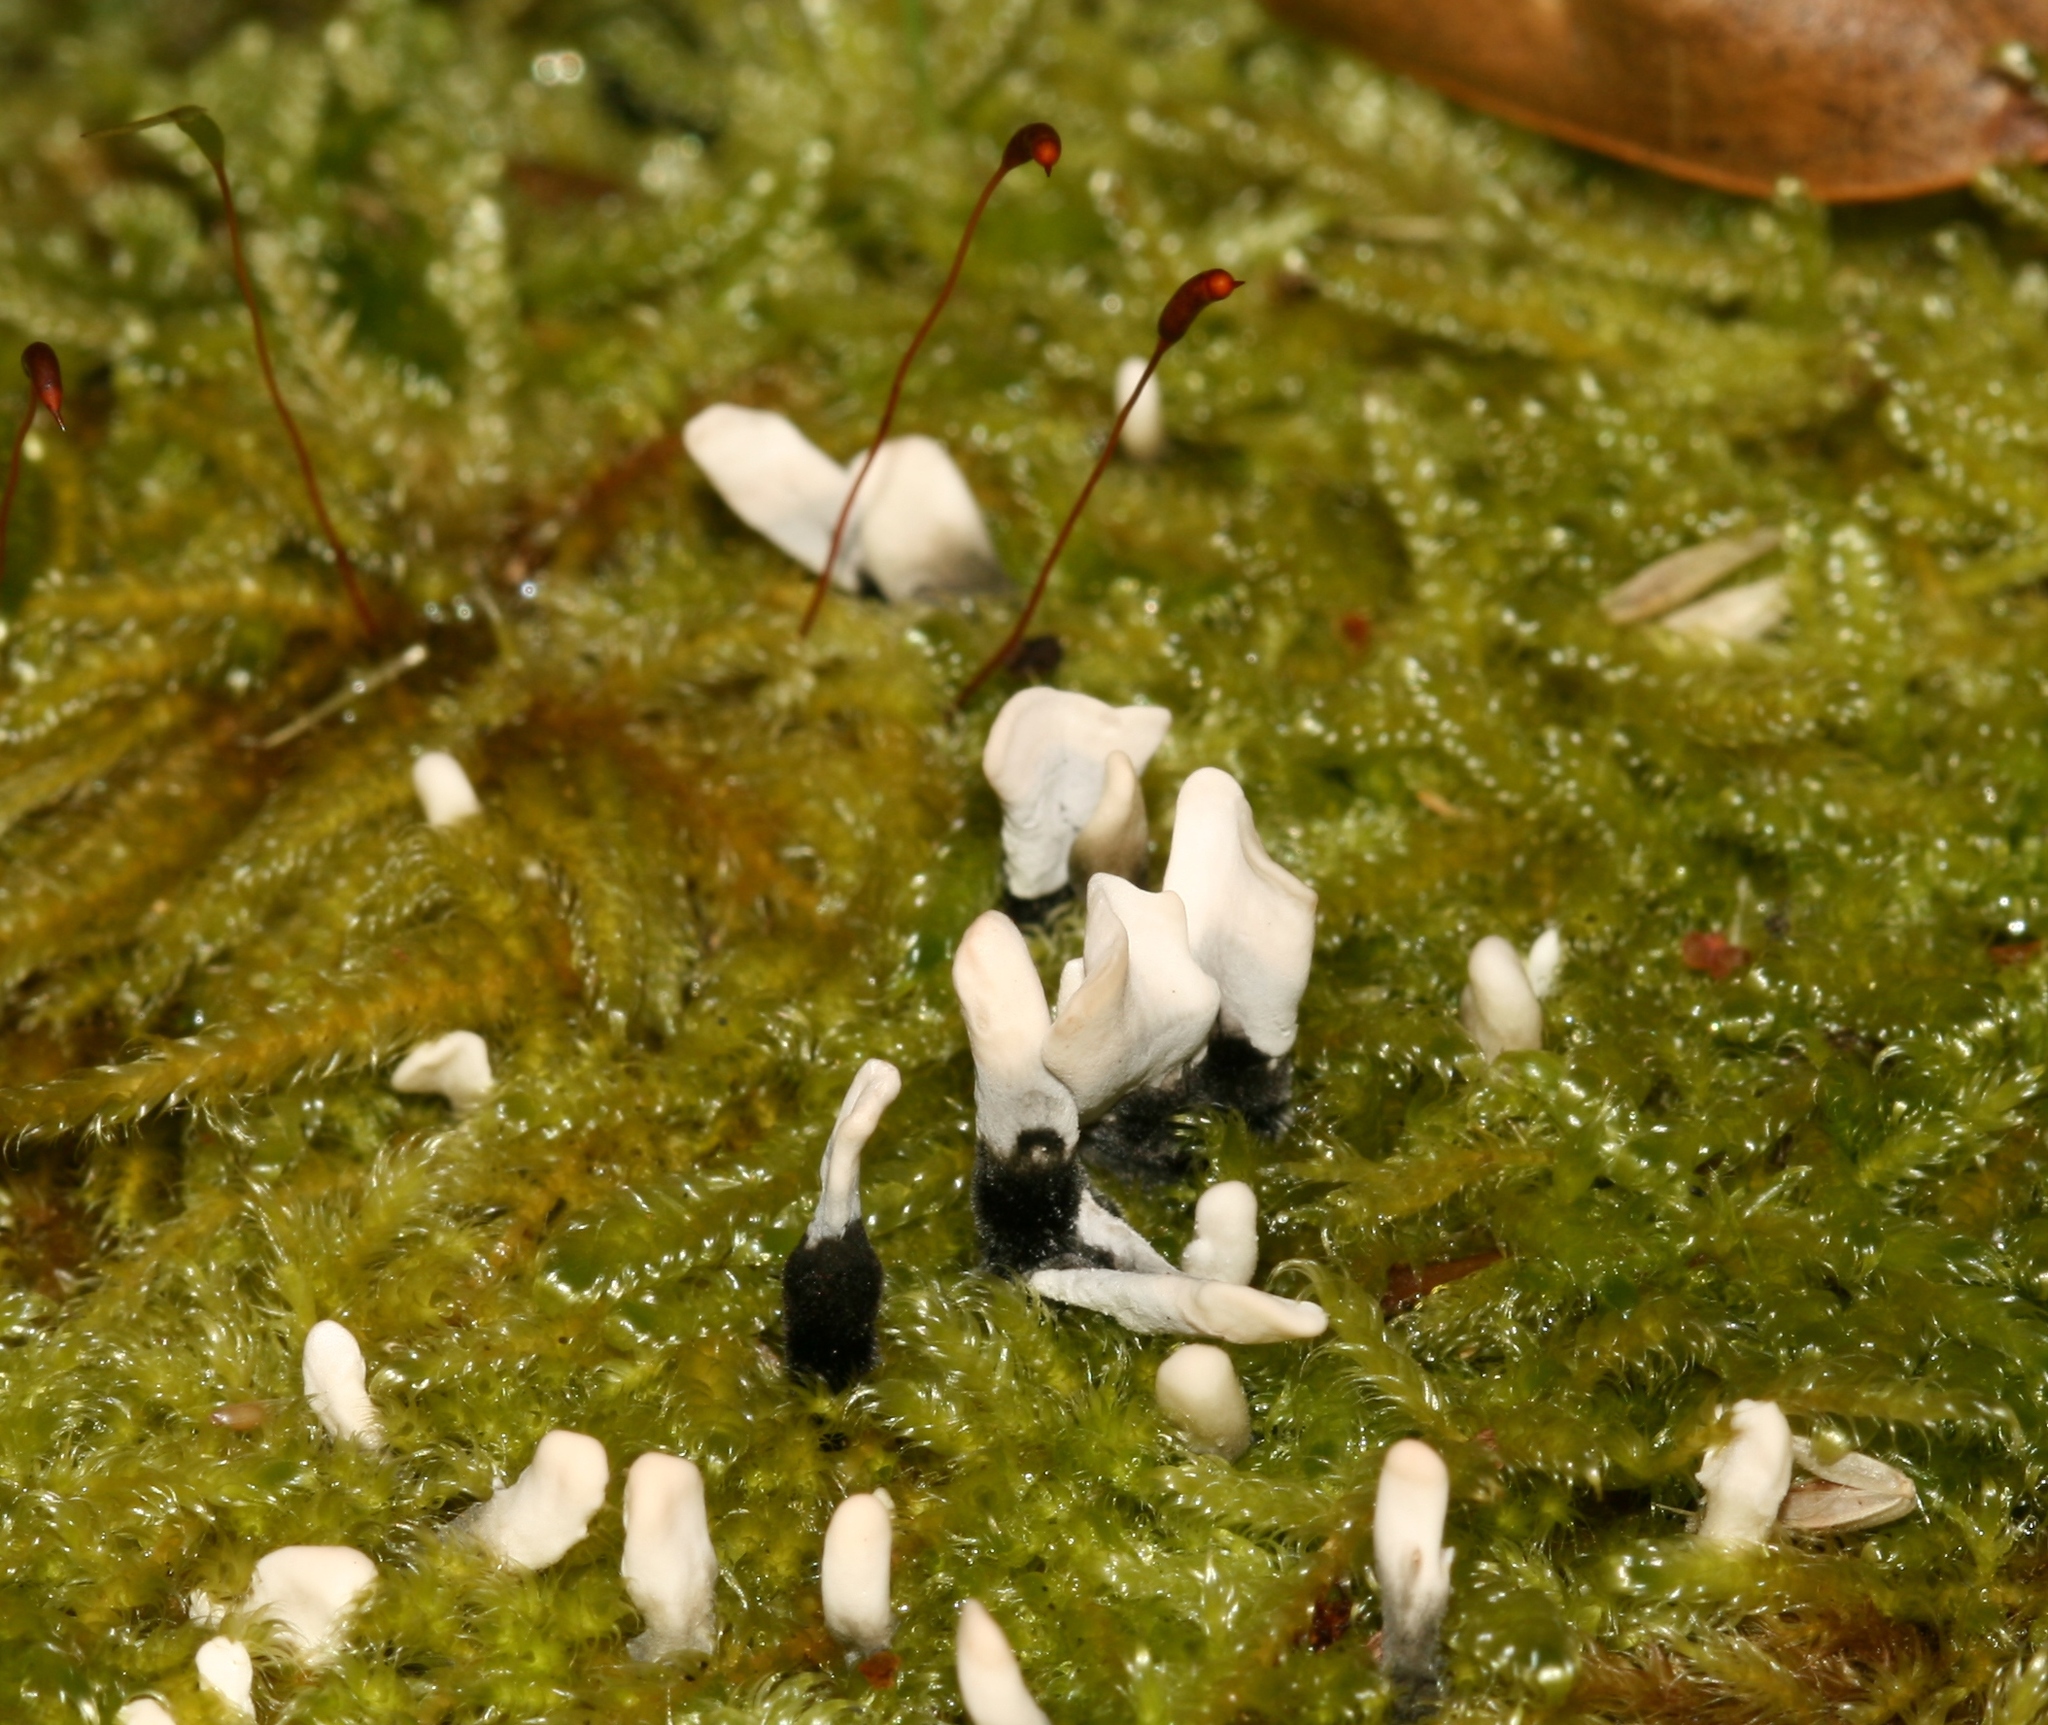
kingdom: Fungi
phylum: Ascomycota
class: Sordariomycetes
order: Xylariales
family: Xylariaceae
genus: Xylaria
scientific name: Xylaria hypoxylon
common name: Candle-snuff fungus
